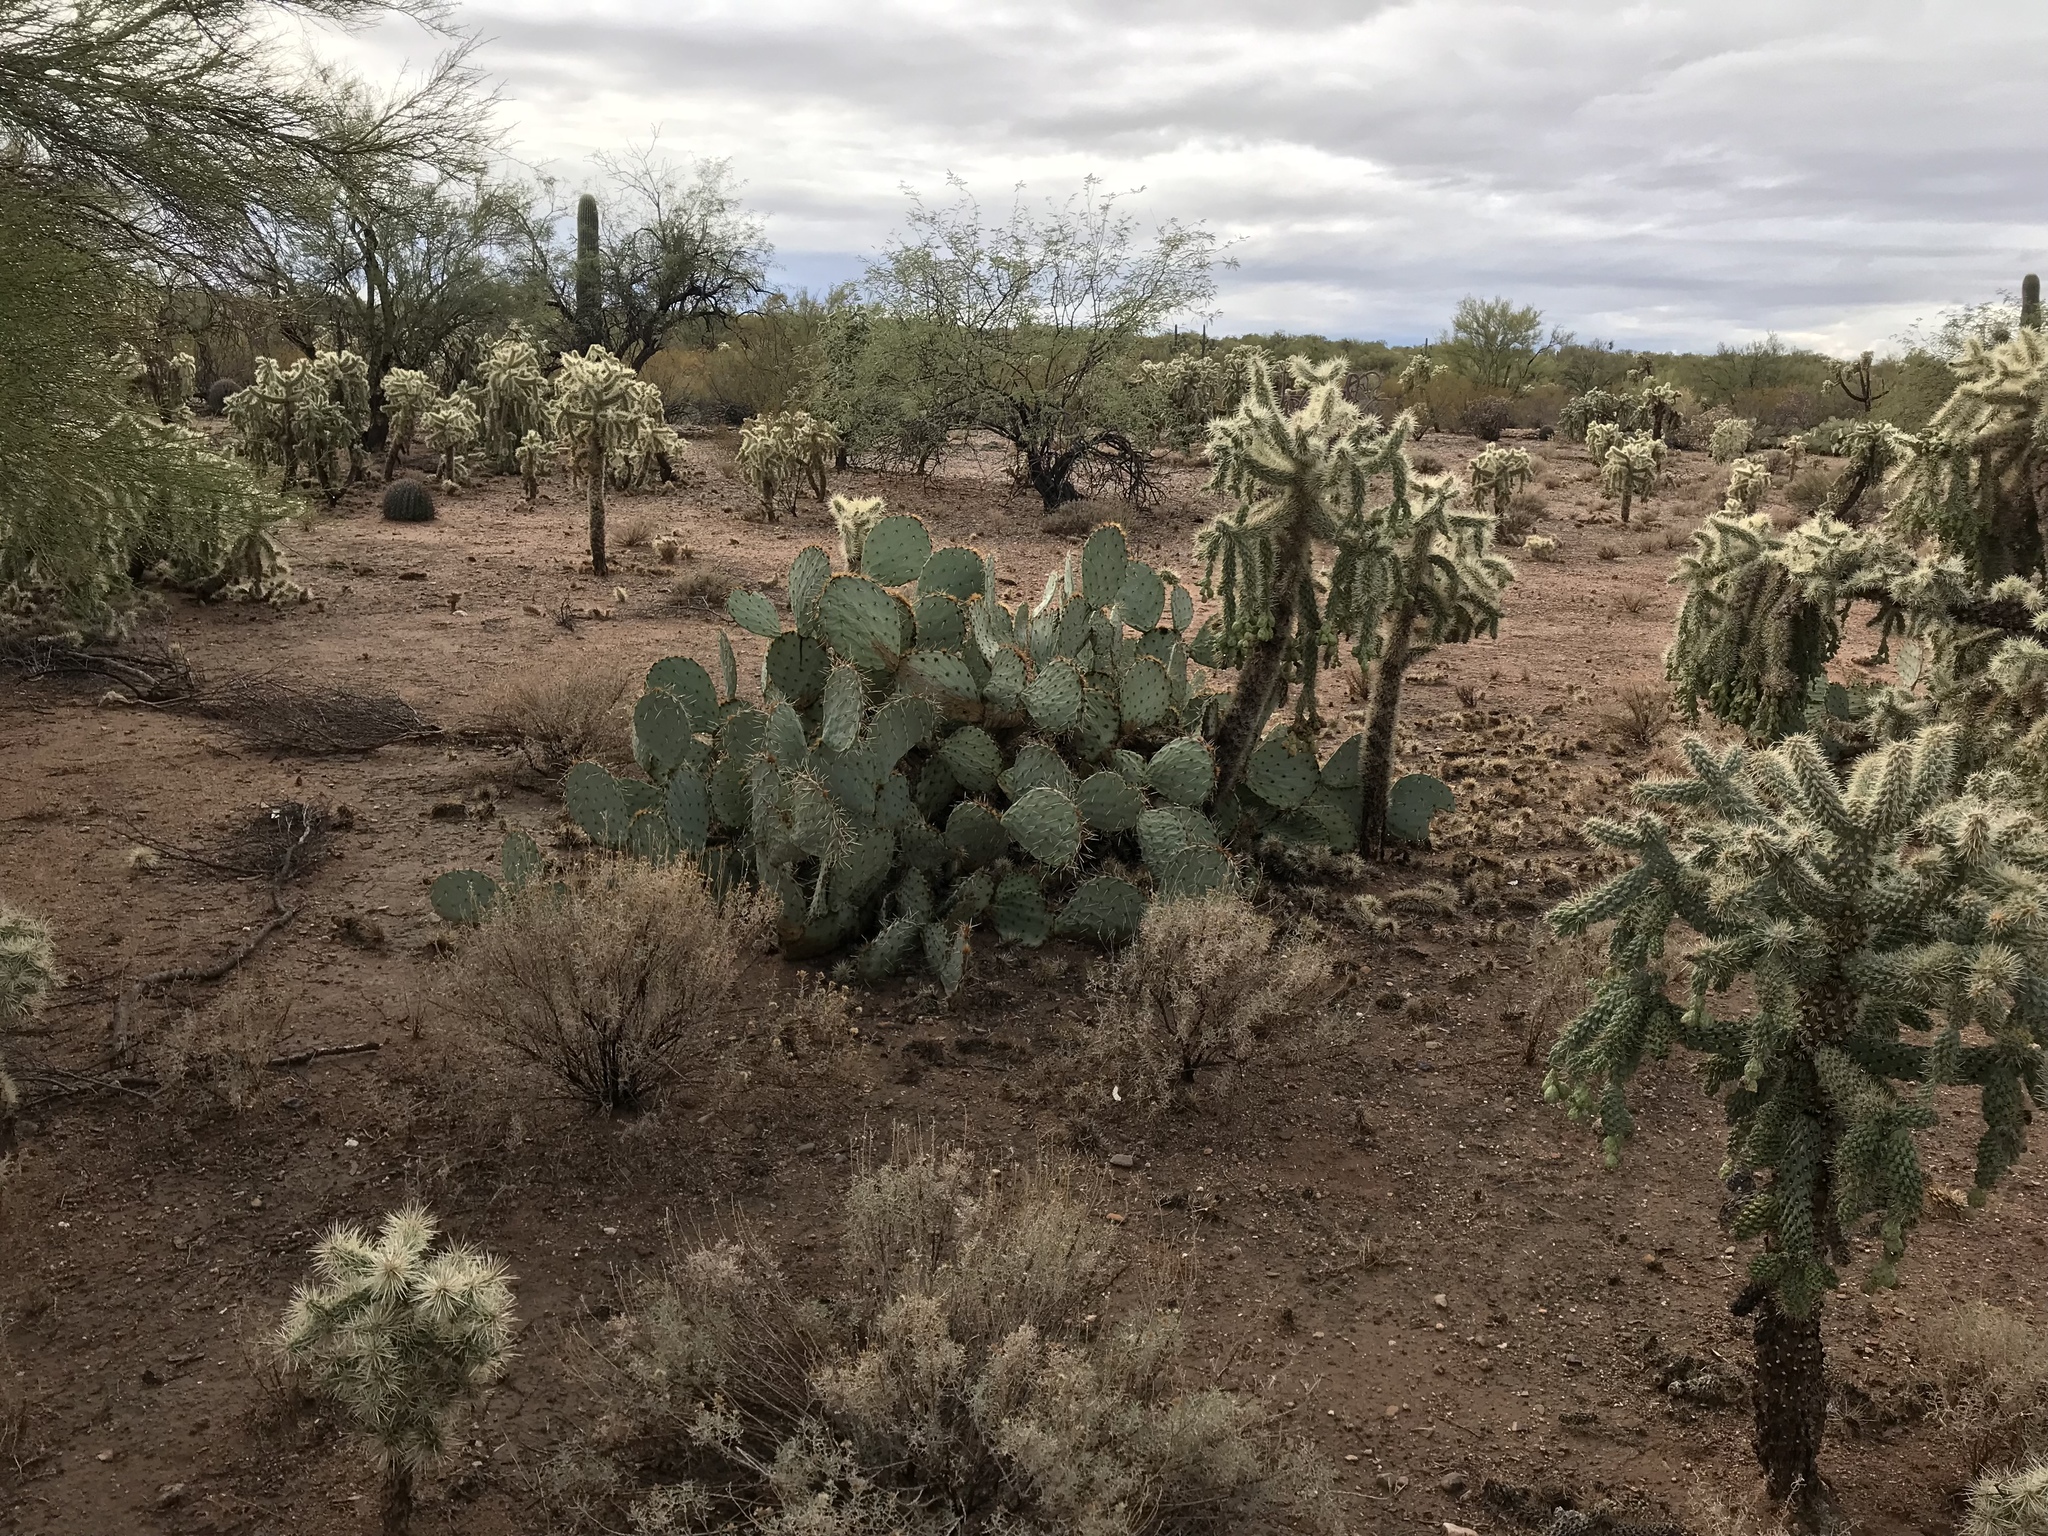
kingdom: Plantae
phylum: Tracheophyta
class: Magnoliopsida
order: Caryophyllales
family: Cactaceae
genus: Opuntia
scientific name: Opuntia engelmannii
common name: Cactus-apple
